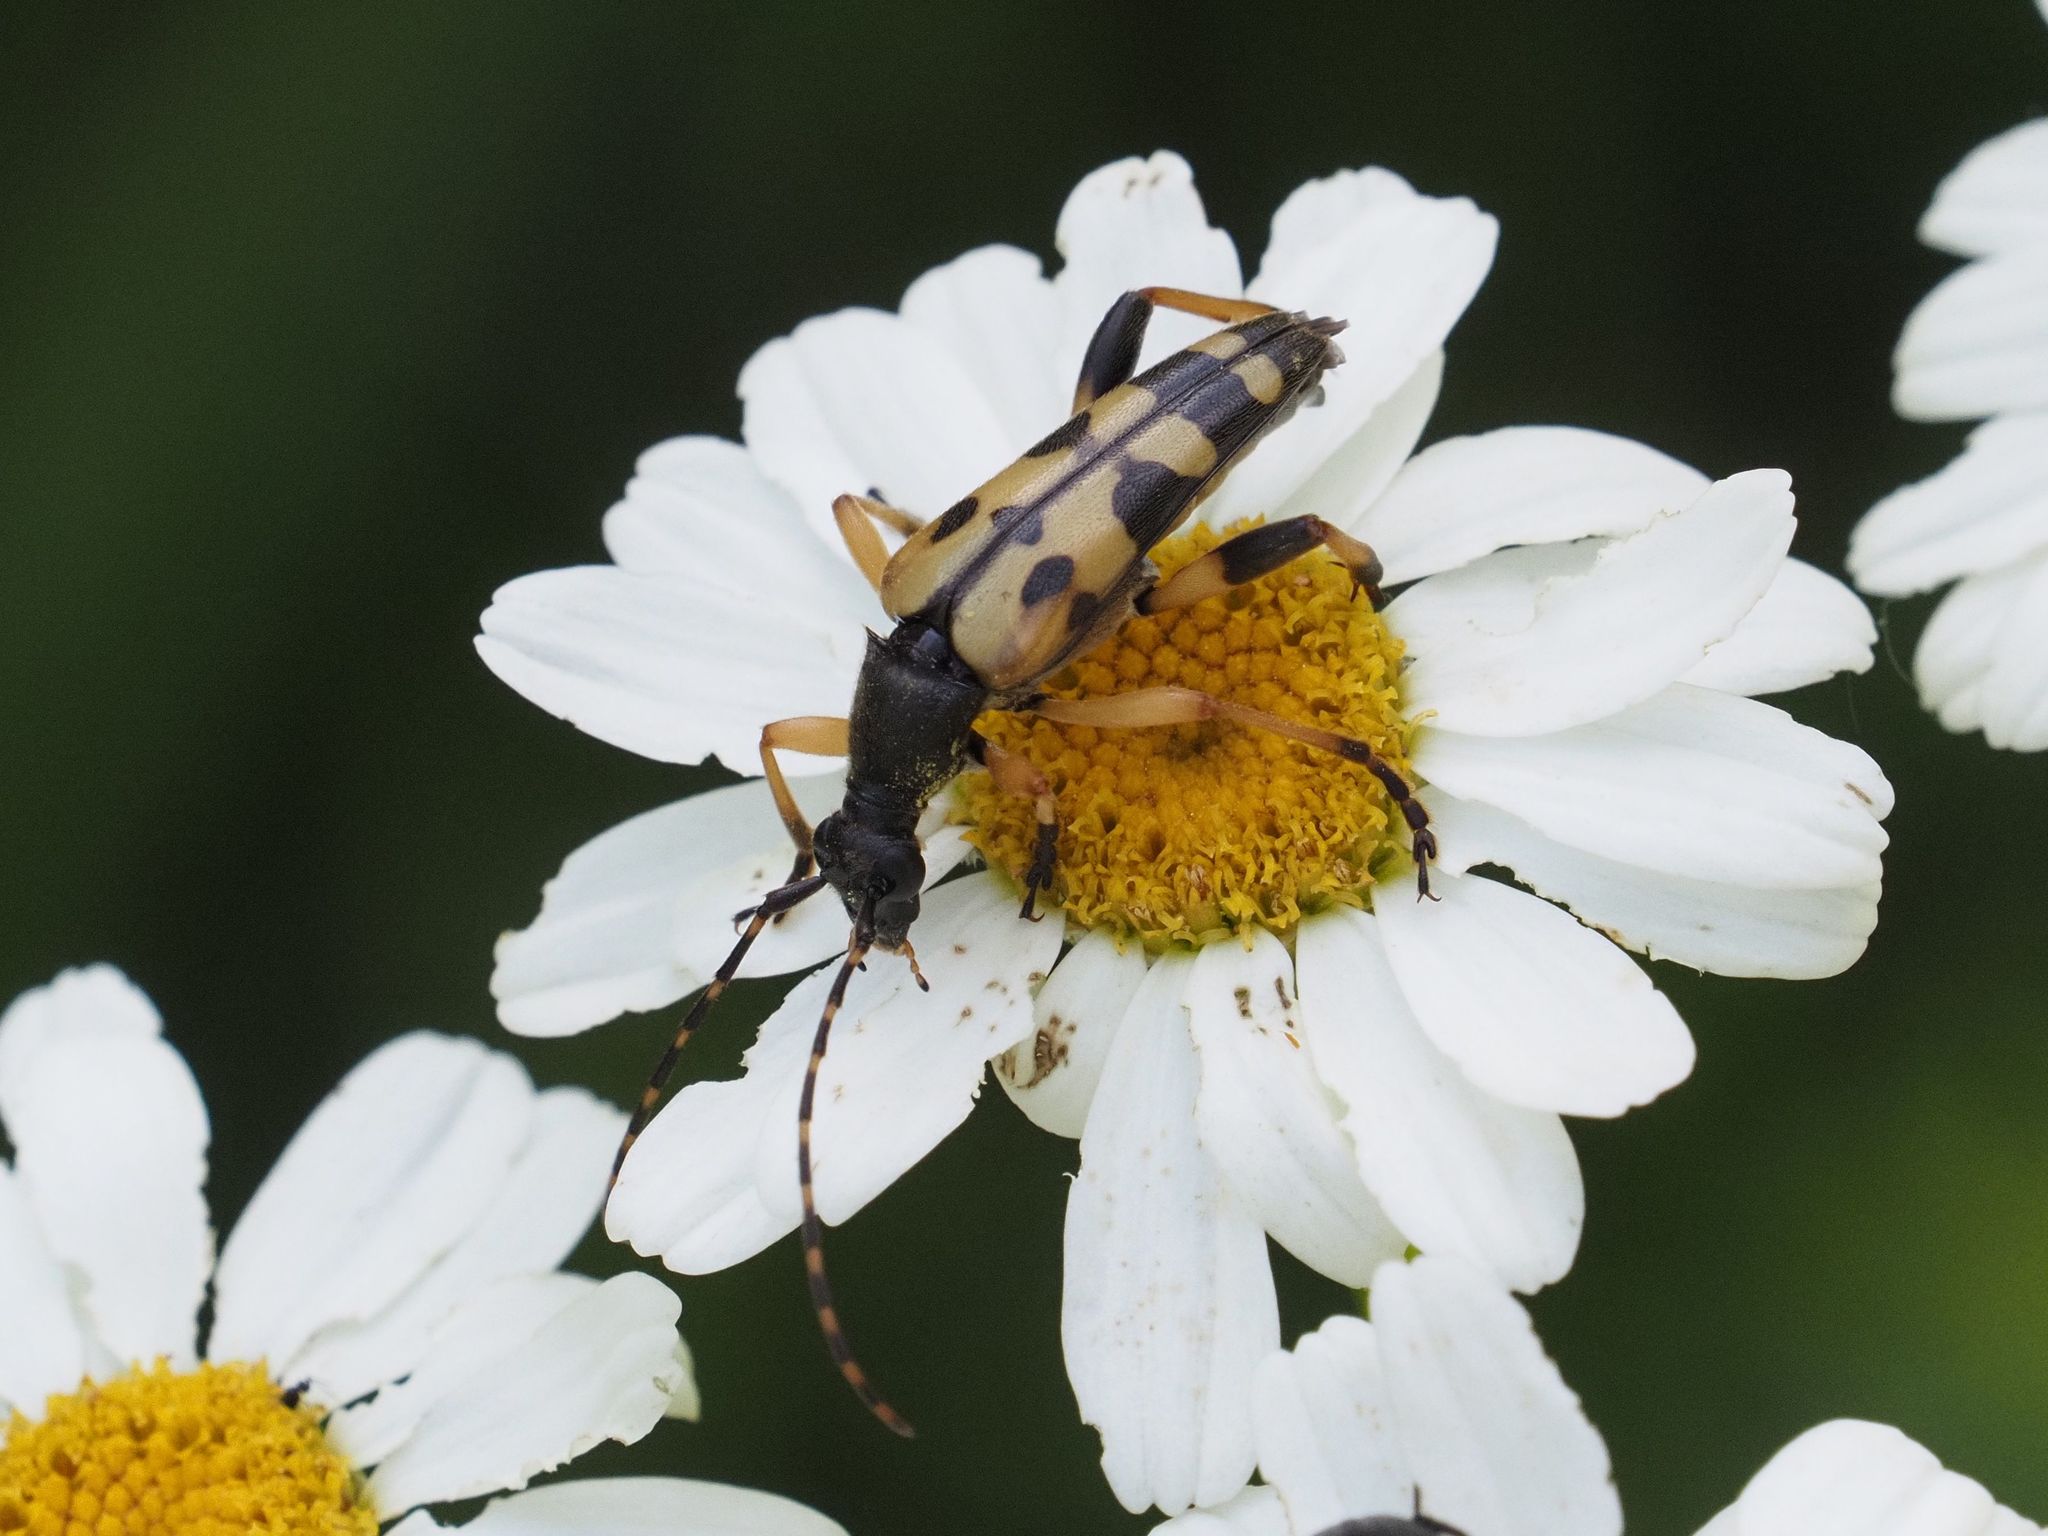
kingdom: Animalia
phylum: Arthropoda
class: Insecta
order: Coleoptera
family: Cerambycidae
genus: Rutpela
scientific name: Rutpela maculata
